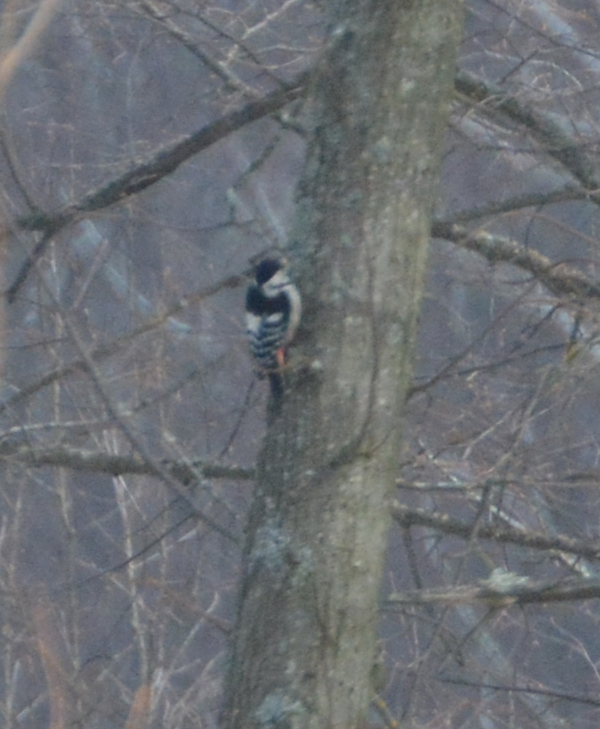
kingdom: Animalia
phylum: Chordata
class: Aves
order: Piciformes
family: Picidae
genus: Dendrocopos
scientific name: Dendrocopos leucotos
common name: White-backed woodpecker
